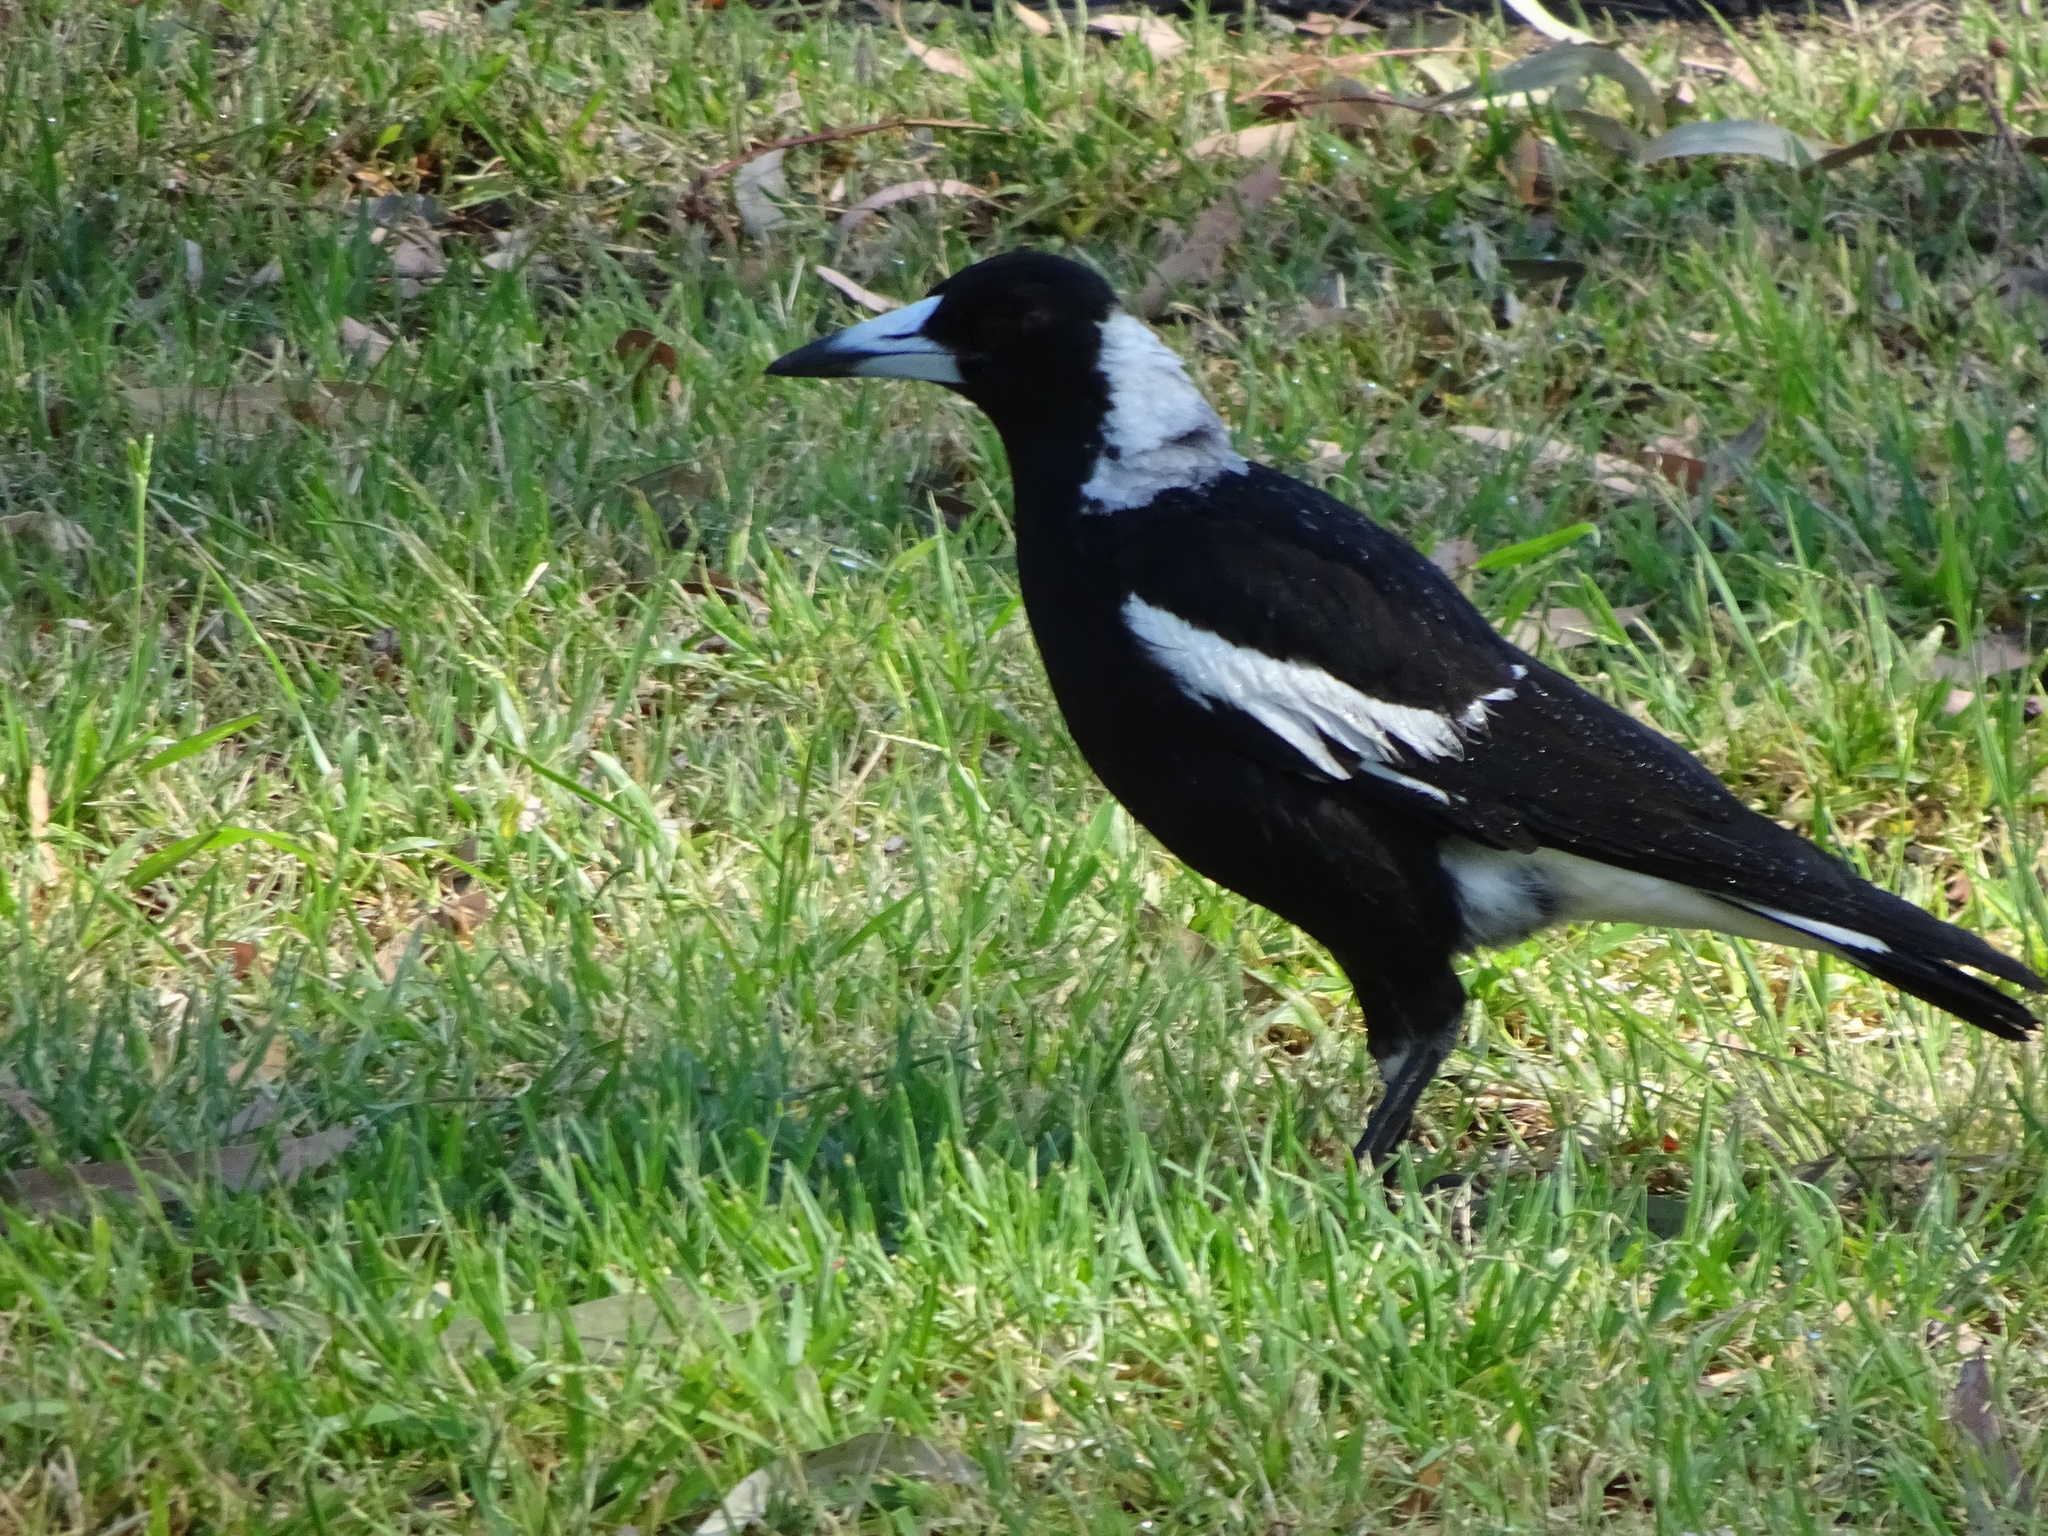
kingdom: Animalia
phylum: Chordata
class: Aves
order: Passeriformes
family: Cracticidae
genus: Gymnorhina
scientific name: Gymnorhina tibicen
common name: Australian magpie
